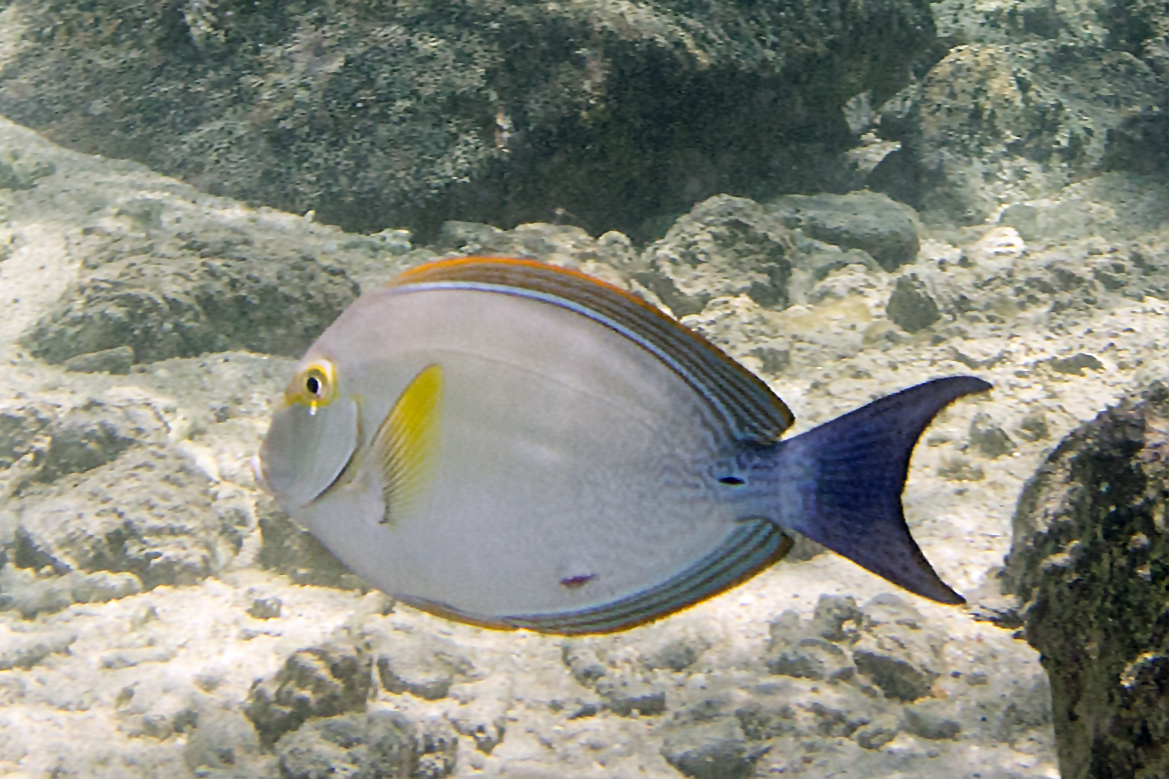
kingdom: Animalia
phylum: Chordata
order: Perciformes
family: Acanthuridae
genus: Acanthurus
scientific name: Acanthurus xanthopterus
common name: Cuvier's surgeonfish
